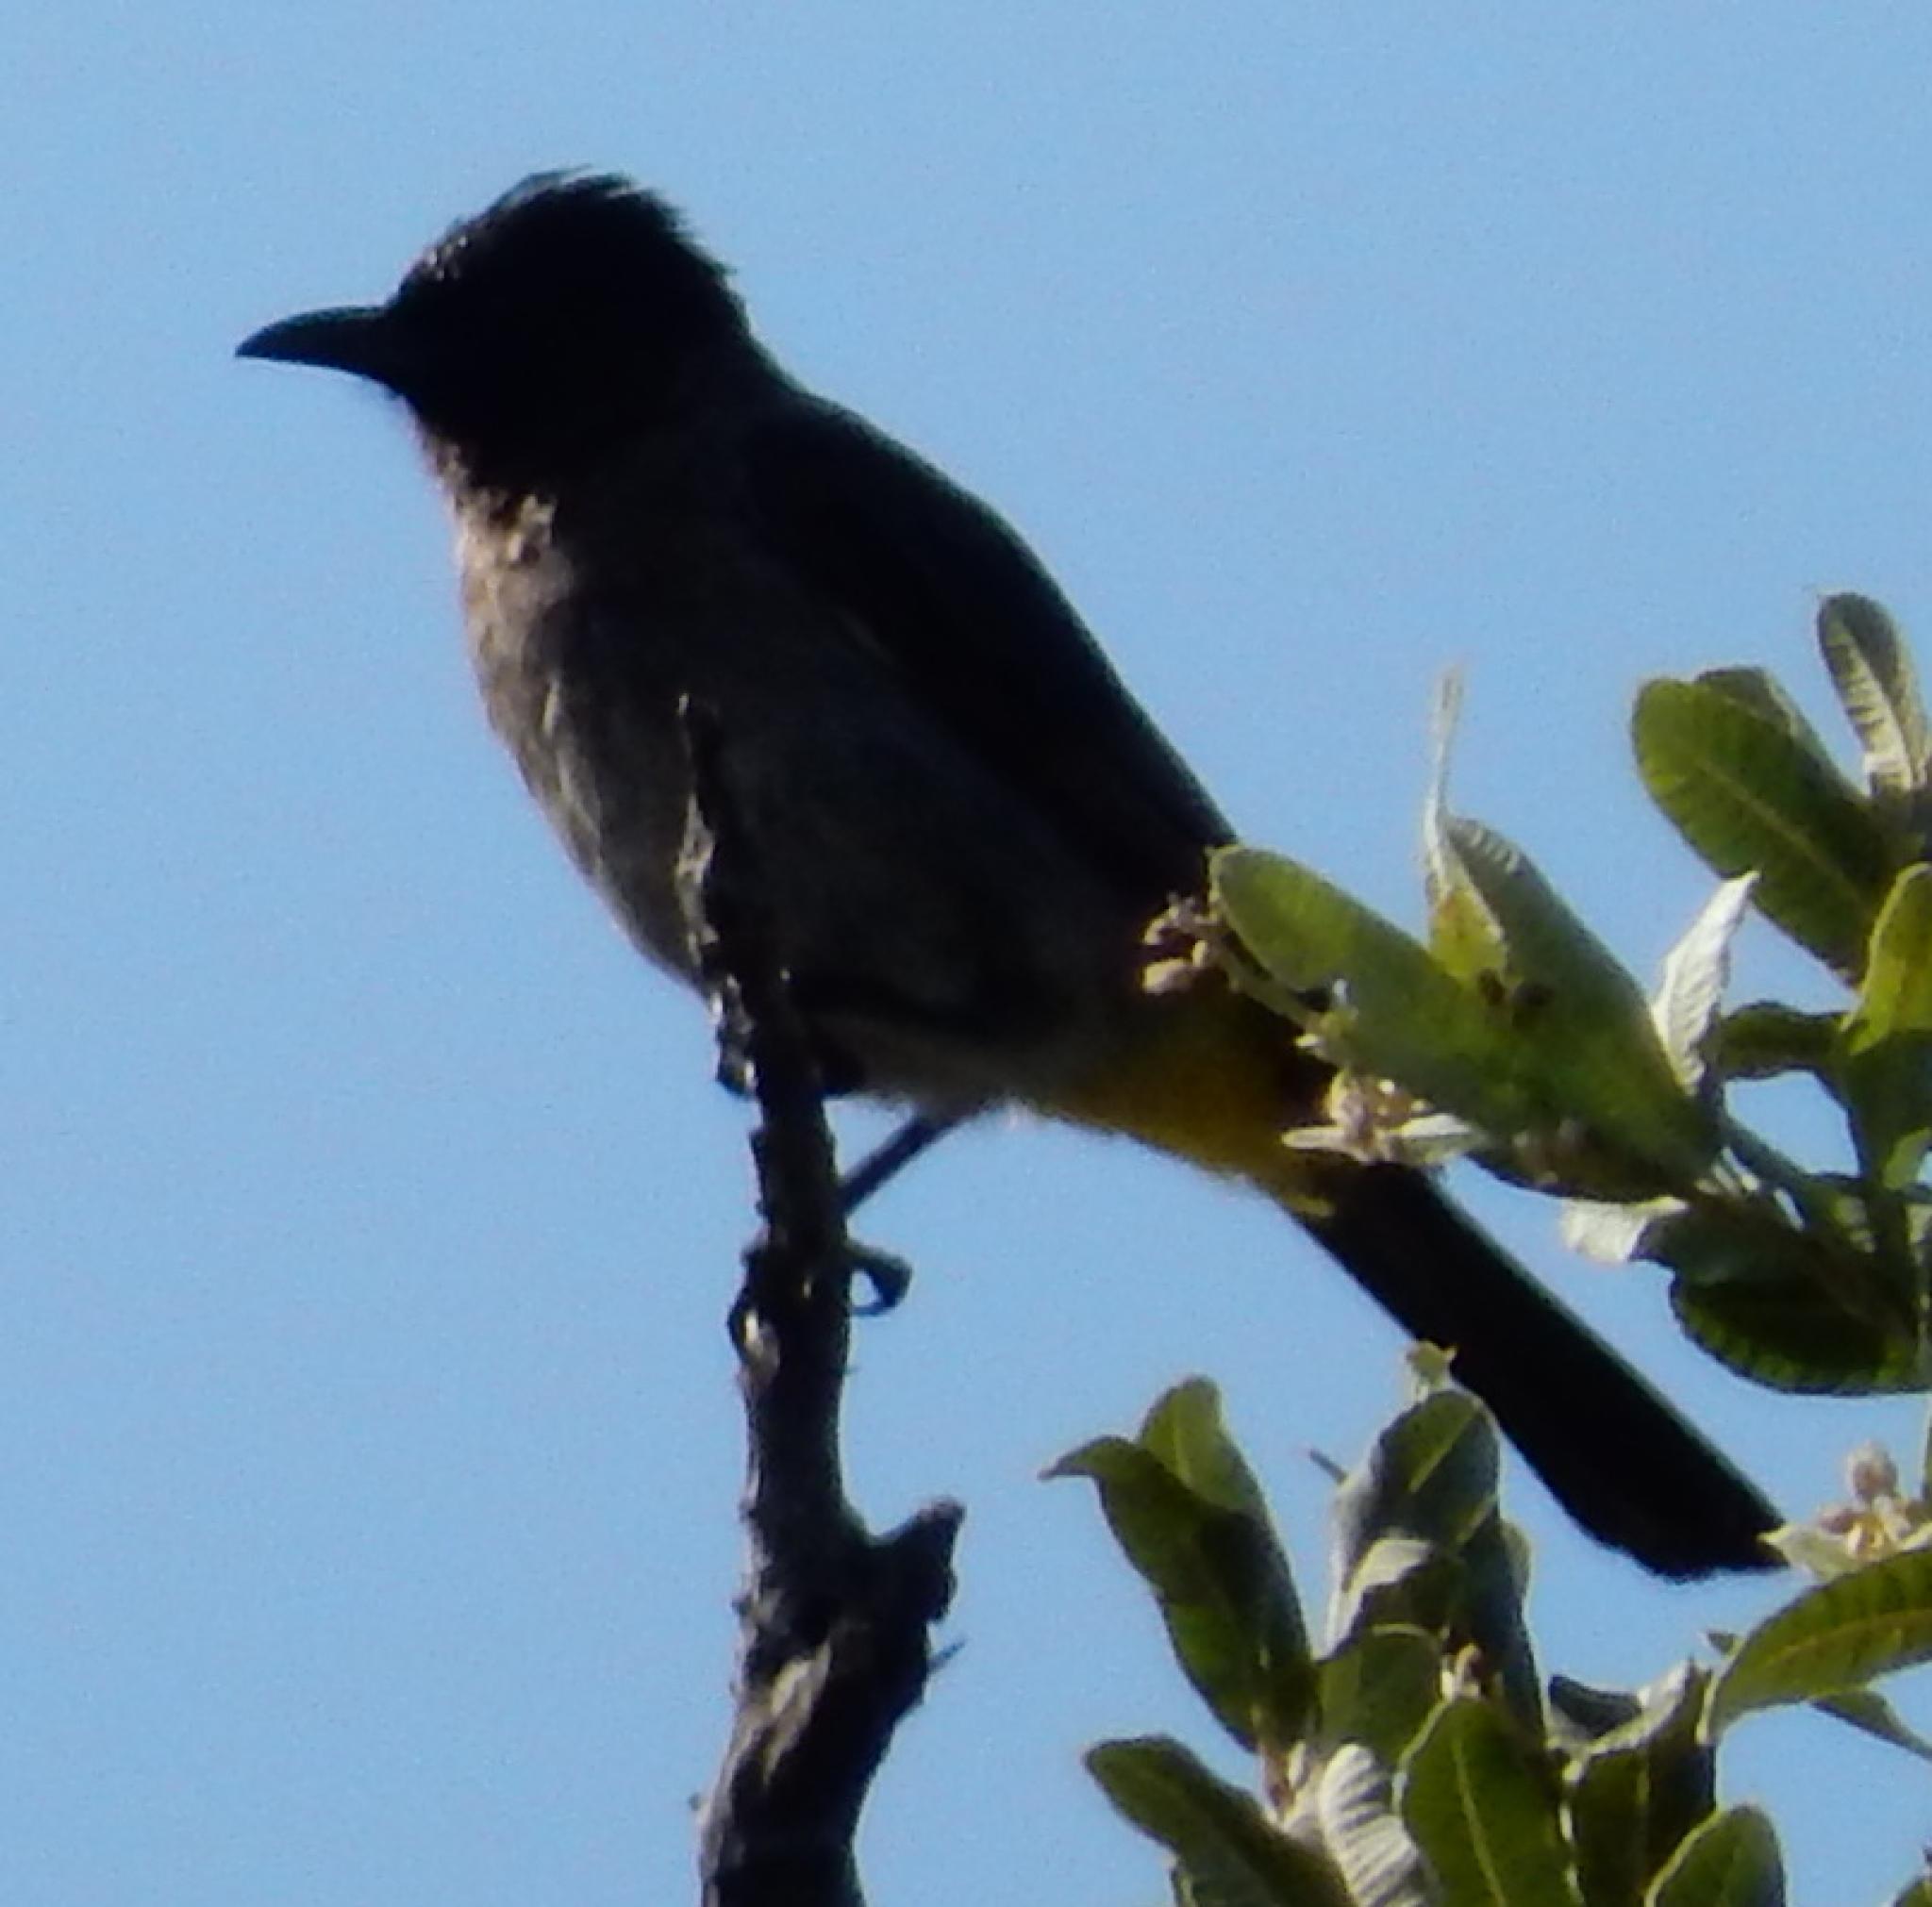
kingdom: Animalia
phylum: Chordata
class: Aves
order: Passeriformes
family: Pycnonotidae
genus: Pycnonotus
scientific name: Pycnonotus barbatus
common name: Common bulbul
